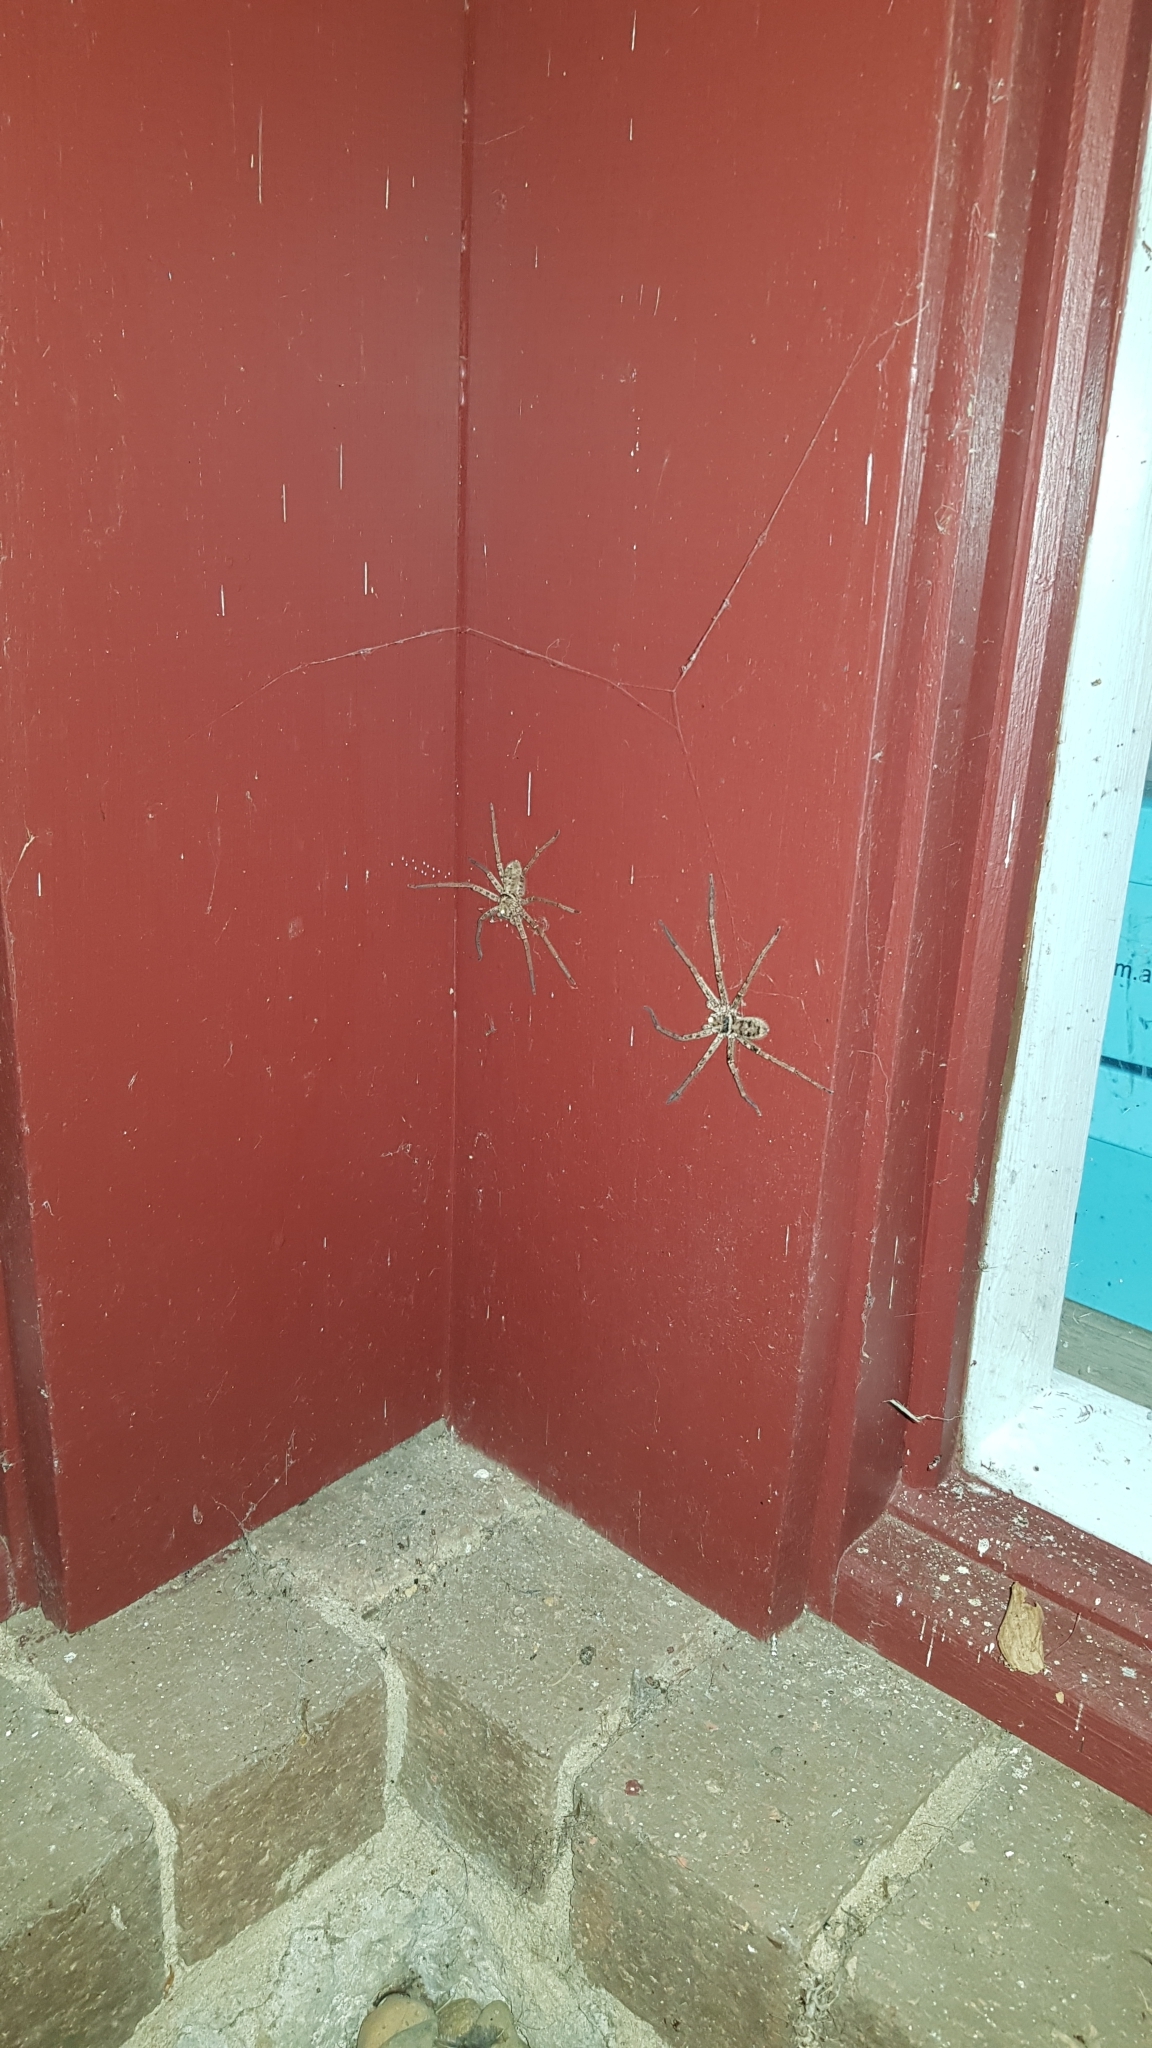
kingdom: Animalia
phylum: Arthropoda
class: Arachnida
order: Araneae
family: Sparassidae
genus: Heteropoda
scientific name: Heteropoda jugulans
